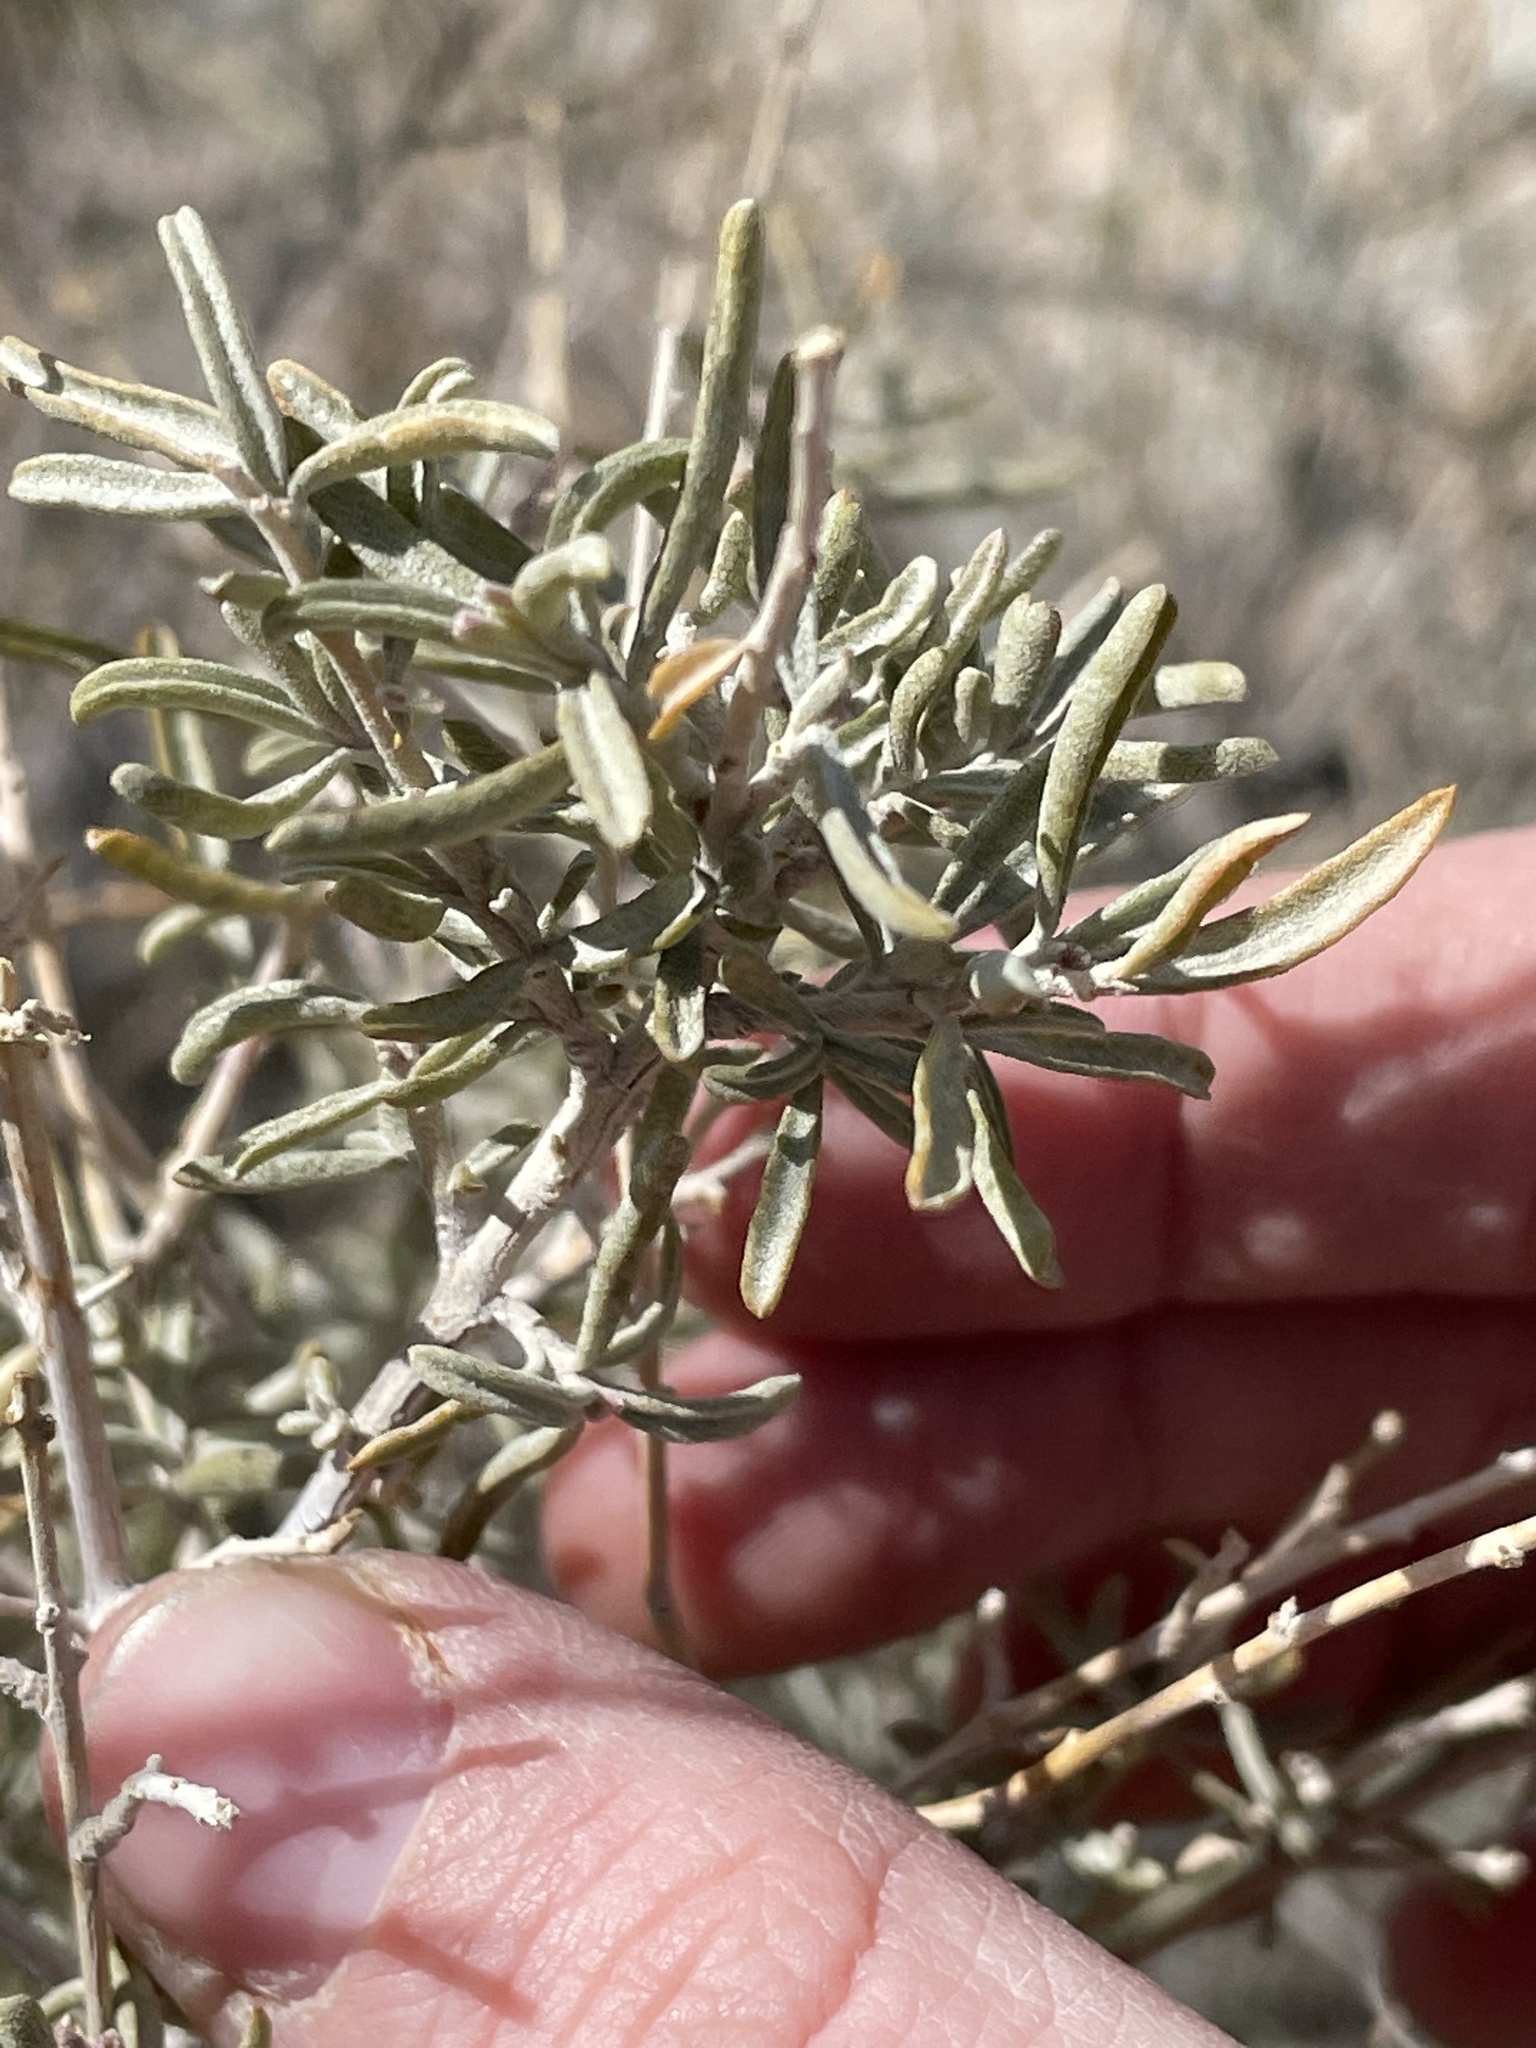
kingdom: Plantae
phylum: Tracheophyta
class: Magnoliopsida
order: Caryophyllales
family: Amaranthaceae
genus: Atriplex
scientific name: Atriplex canescens
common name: Four-wing saltbush
